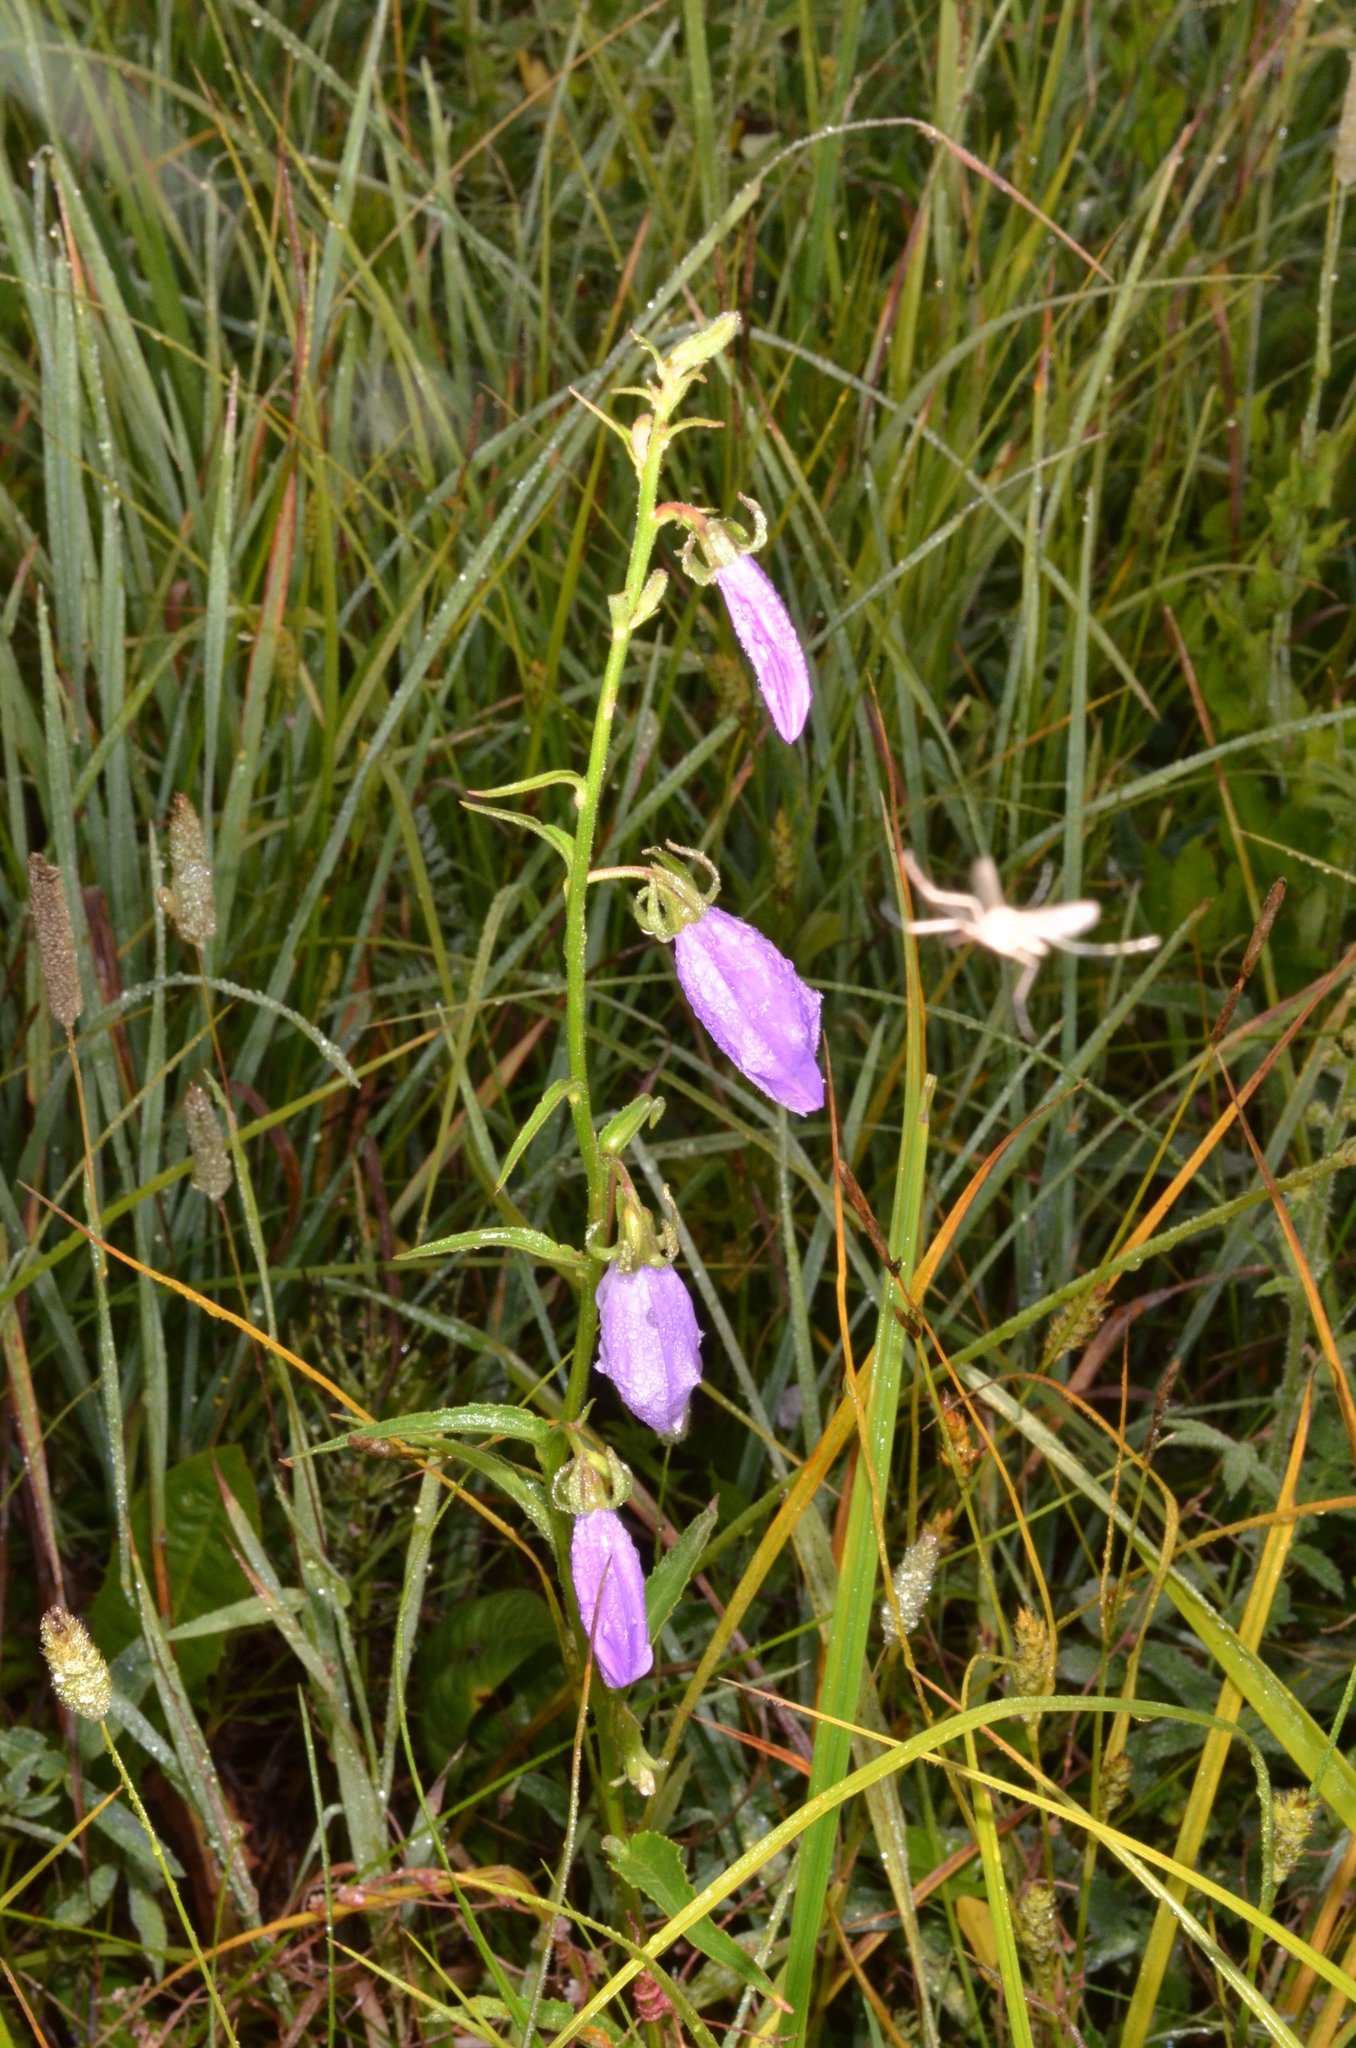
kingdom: Plantae
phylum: Tracheophyta
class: Magnoliopsida
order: Asterales
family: Campanulaceae
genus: Campanula
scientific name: Campanula rapunculoides
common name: Creeping bellflower
